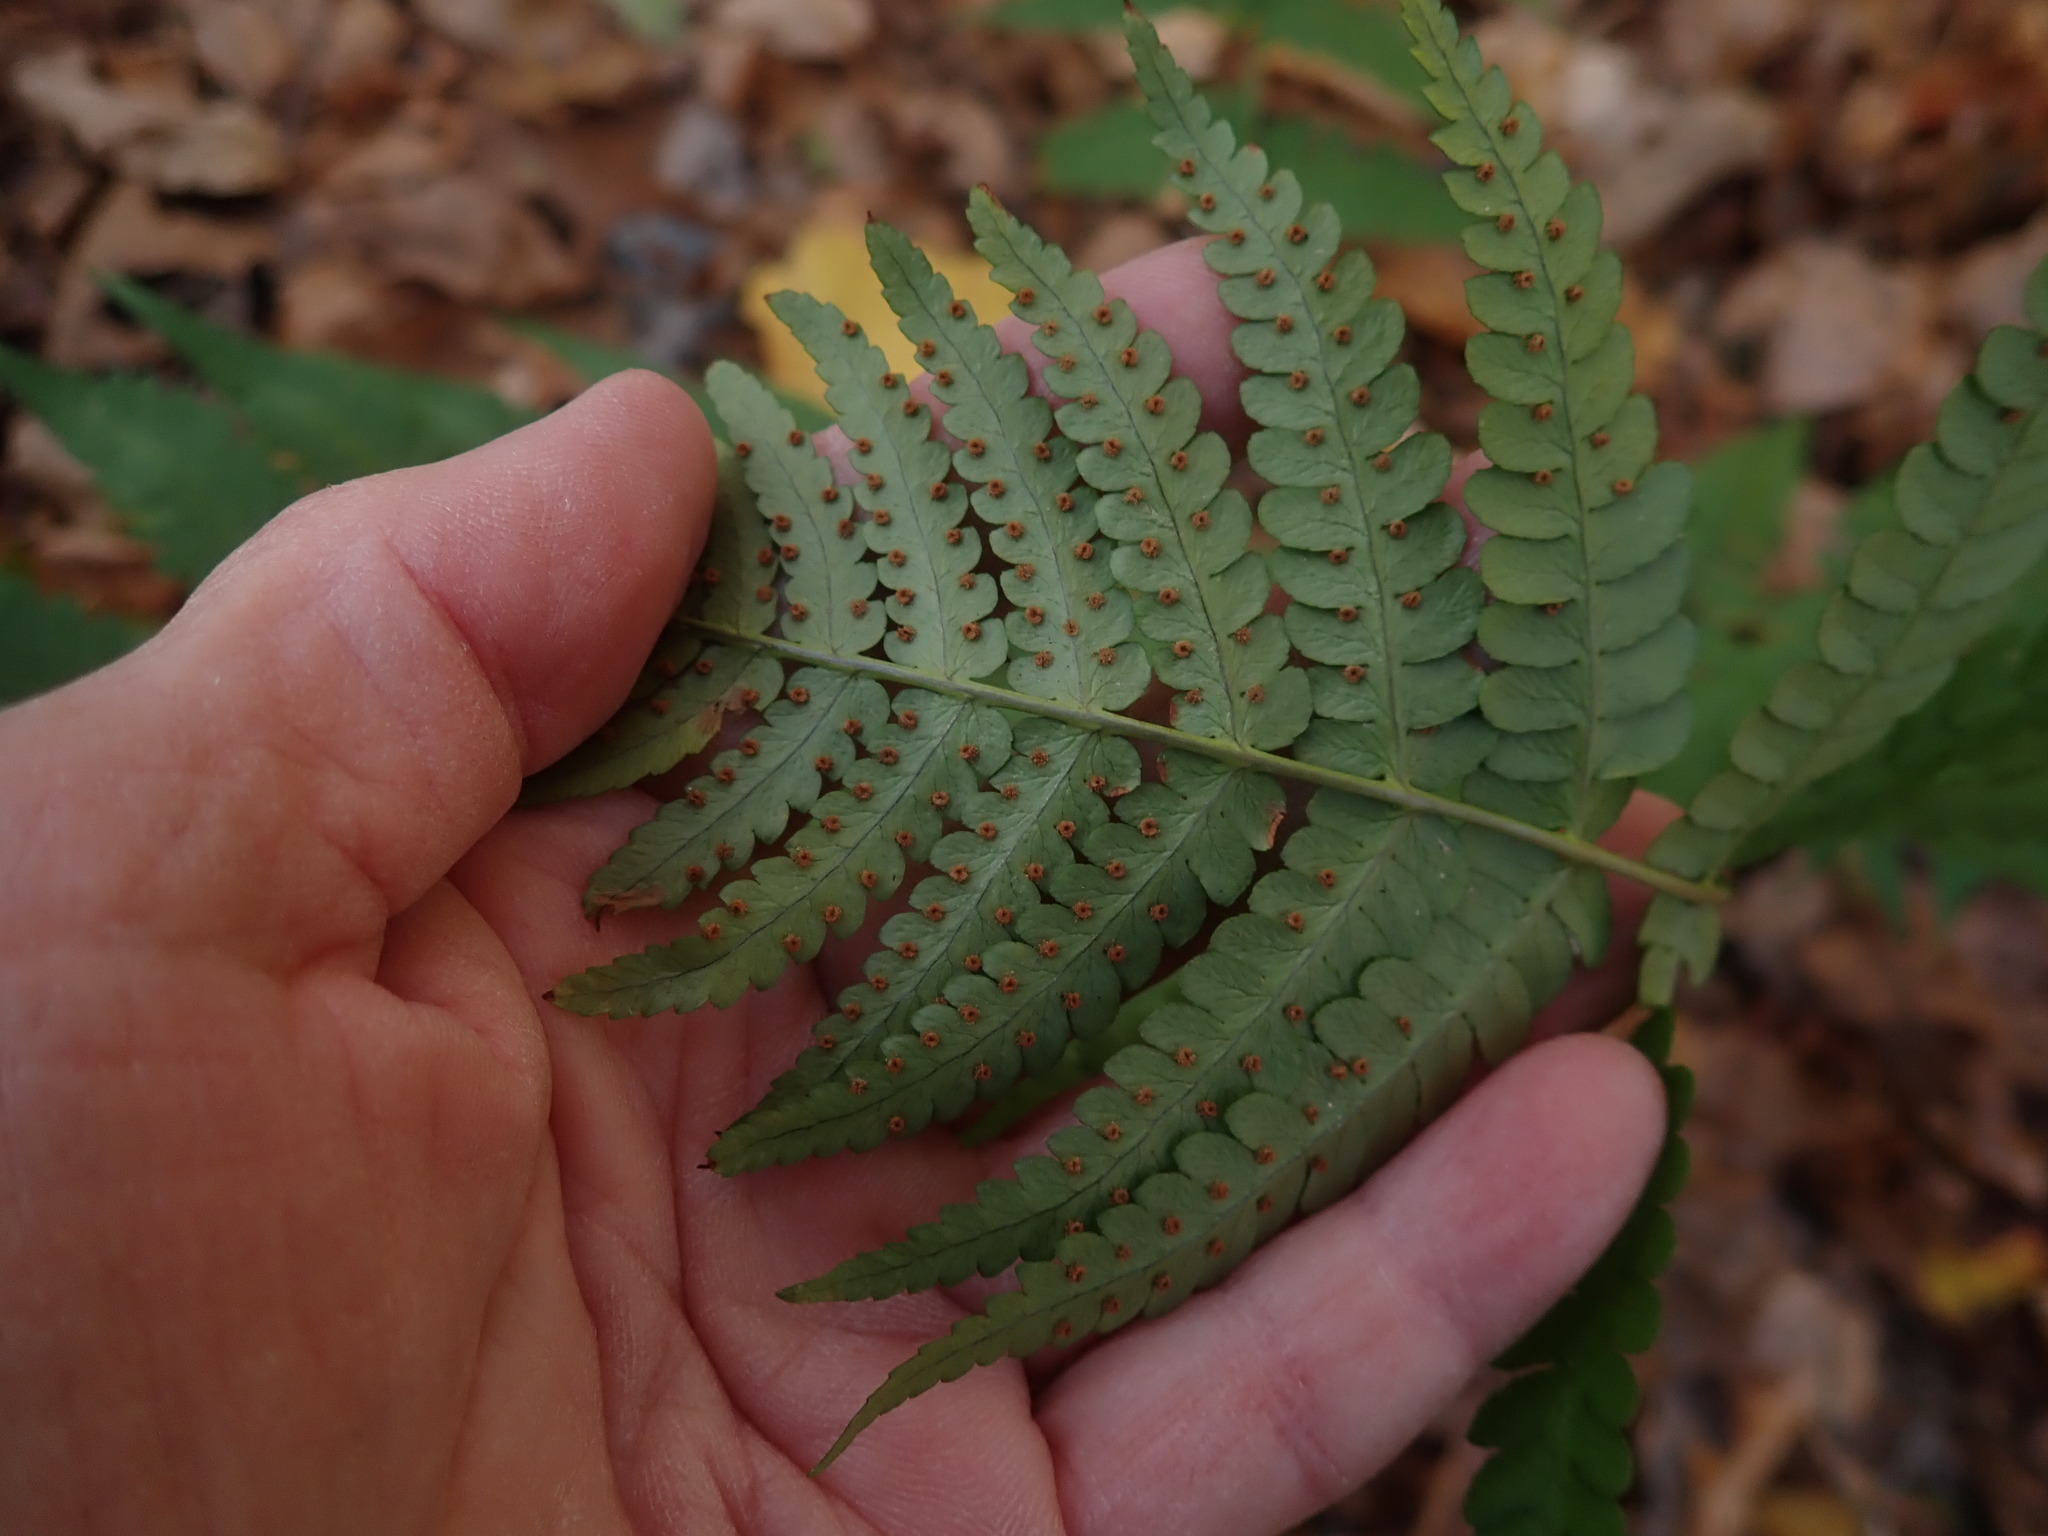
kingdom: Plantae
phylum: Tracheophyta
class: Polypodiopsida
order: Polypodiales
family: Dryopteridaceae
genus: Dryopteris
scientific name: Dryopteris marginalis
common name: Marginal wood fern
